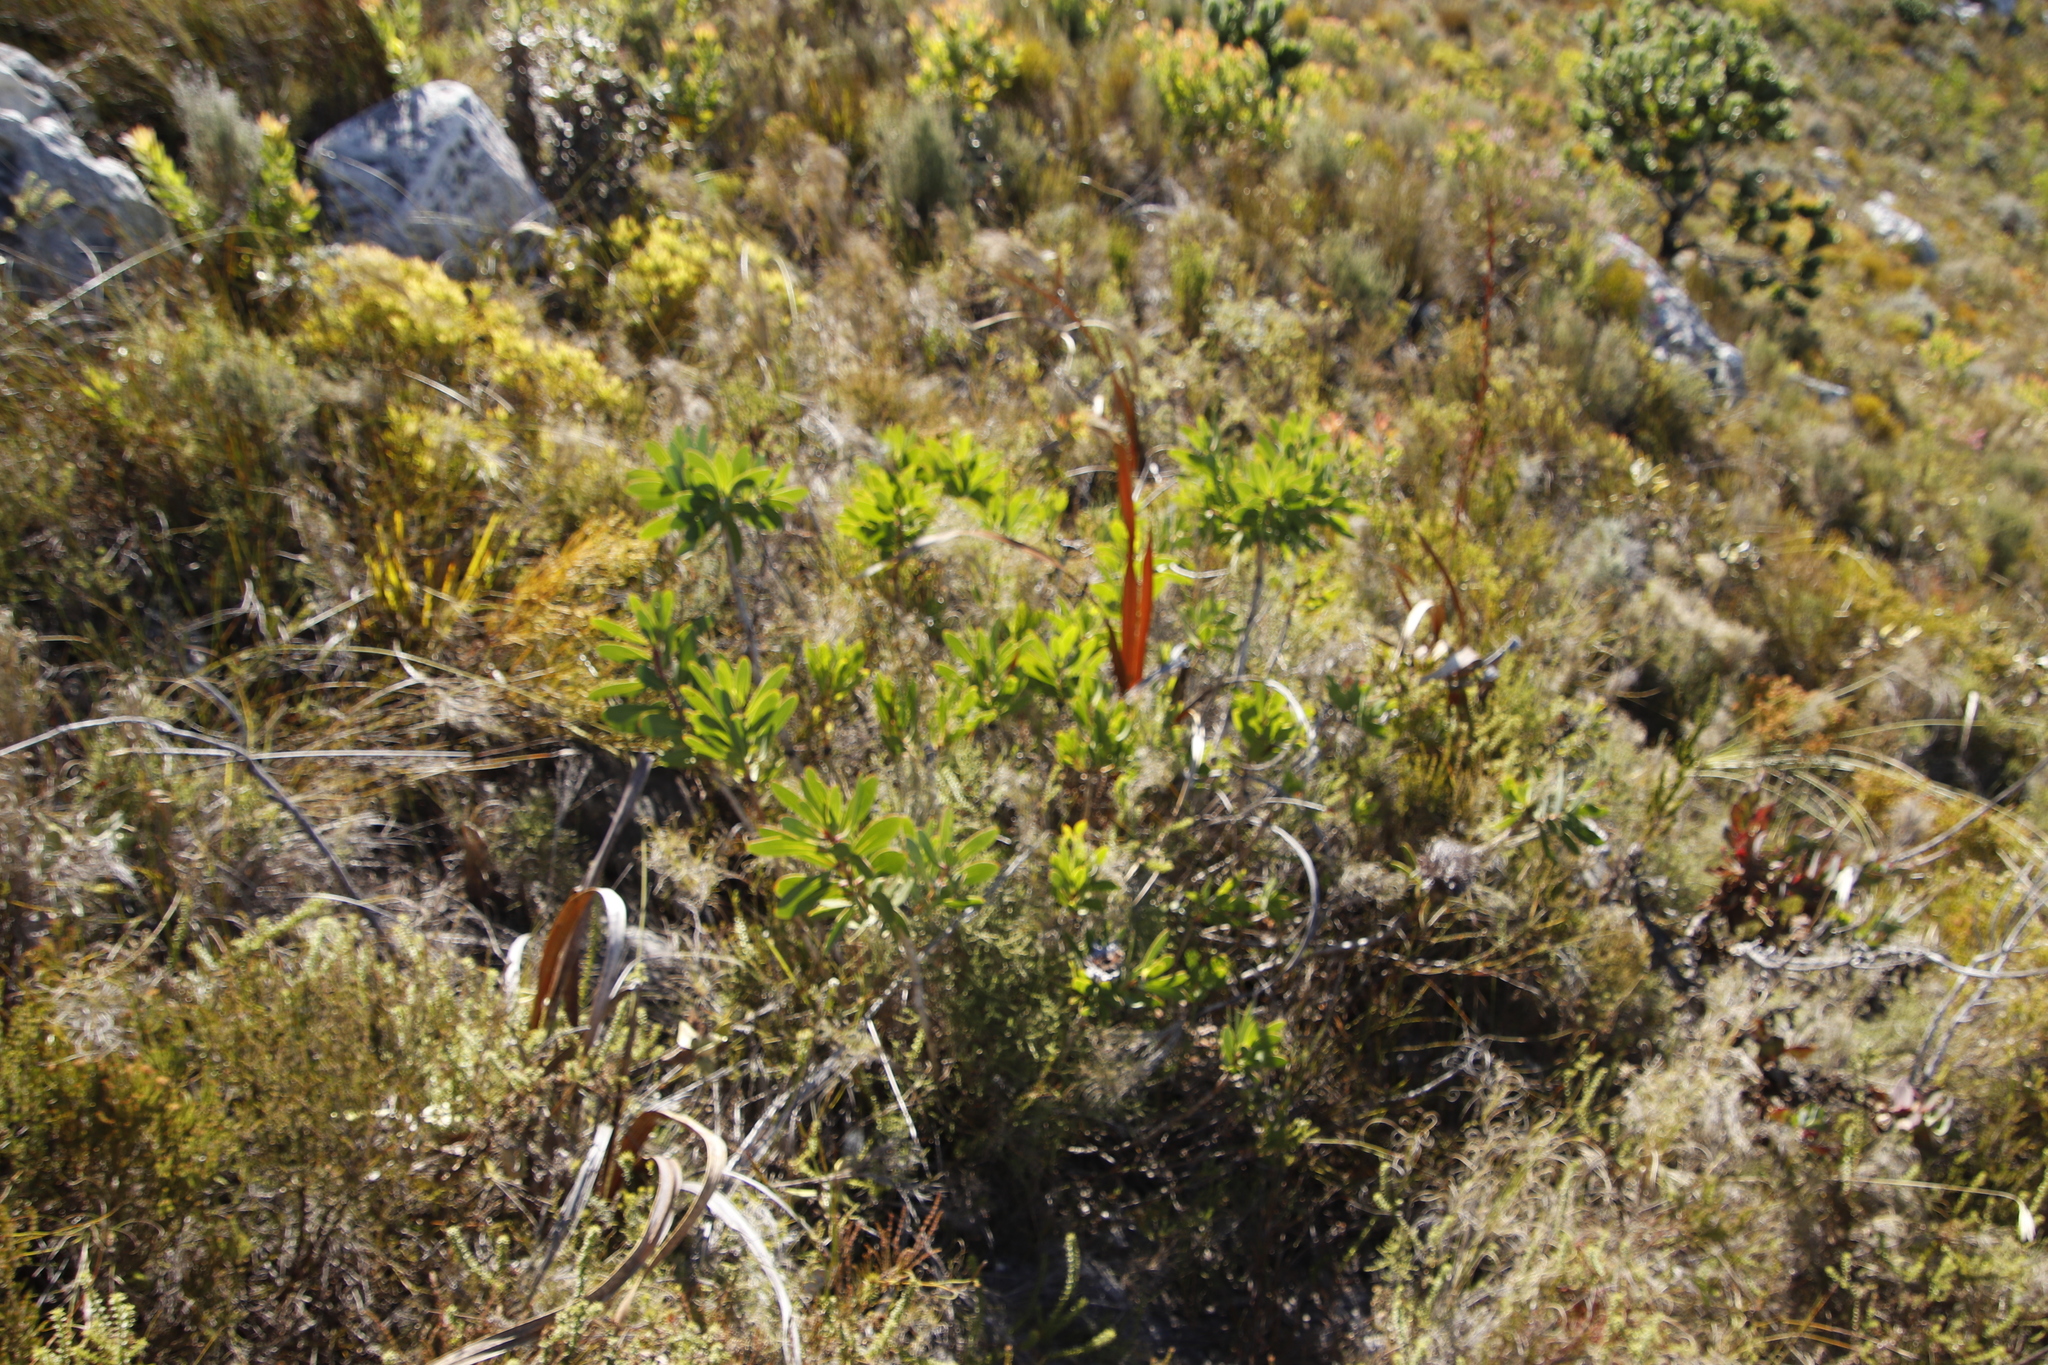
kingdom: Plantae
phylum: Tracheophyta
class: Magnoliopsida
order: Proteales
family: Proteaceae
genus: Protea
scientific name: Protea nitida
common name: Tree protea
